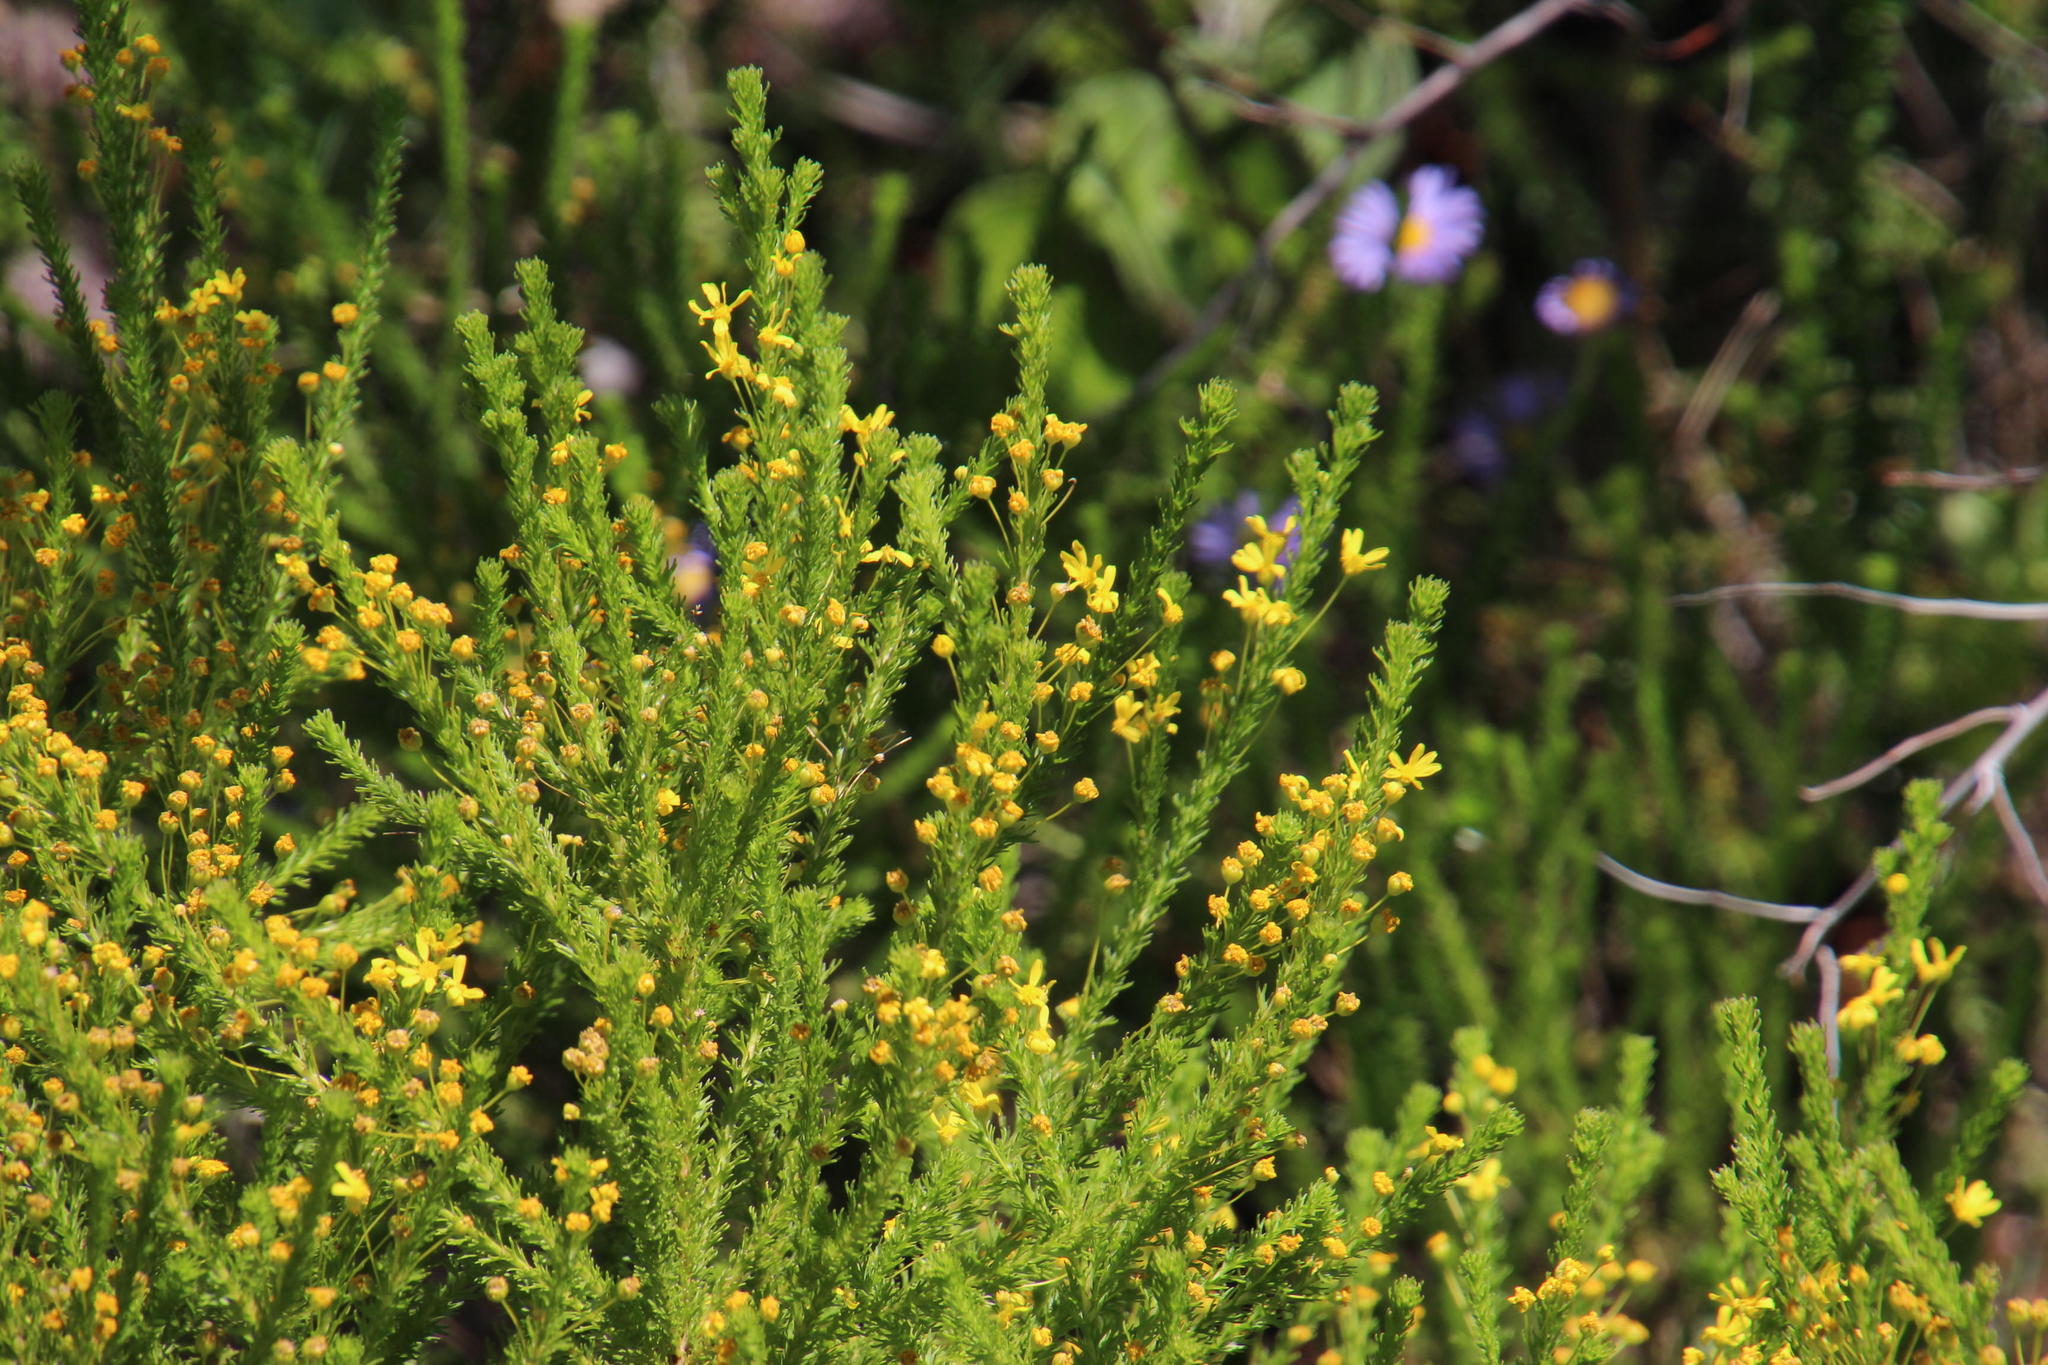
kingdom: Plantae
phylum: Tracheophyta
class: Magnoliopsida
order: Asterales
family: Asteraceae
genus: Euryops
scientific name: Euryops virgineus
